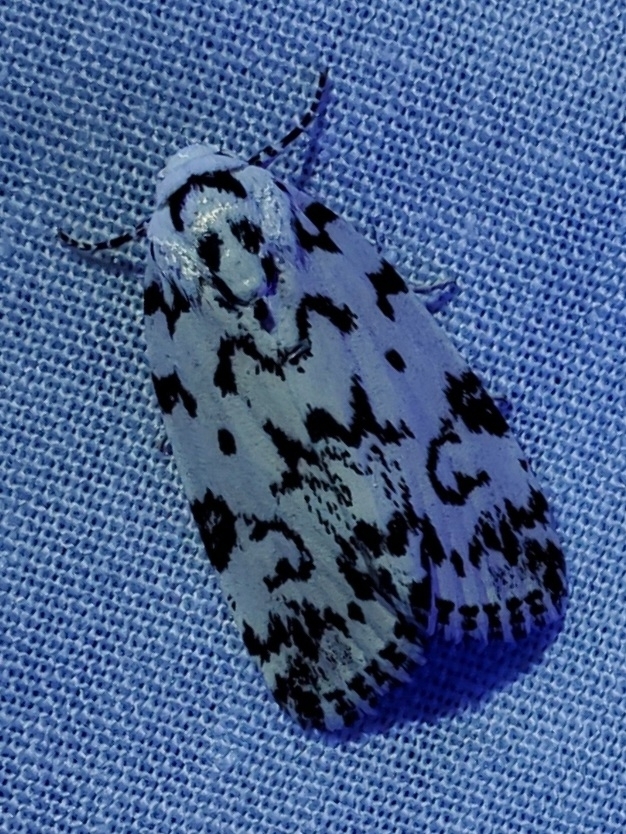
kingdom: Animalia
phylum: Arthropoda
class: Insecta
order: Lepidoptera
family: Noctuidae
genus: Polygrammate
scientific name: Polygrammate hebraeicum
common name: Hebrew moth
